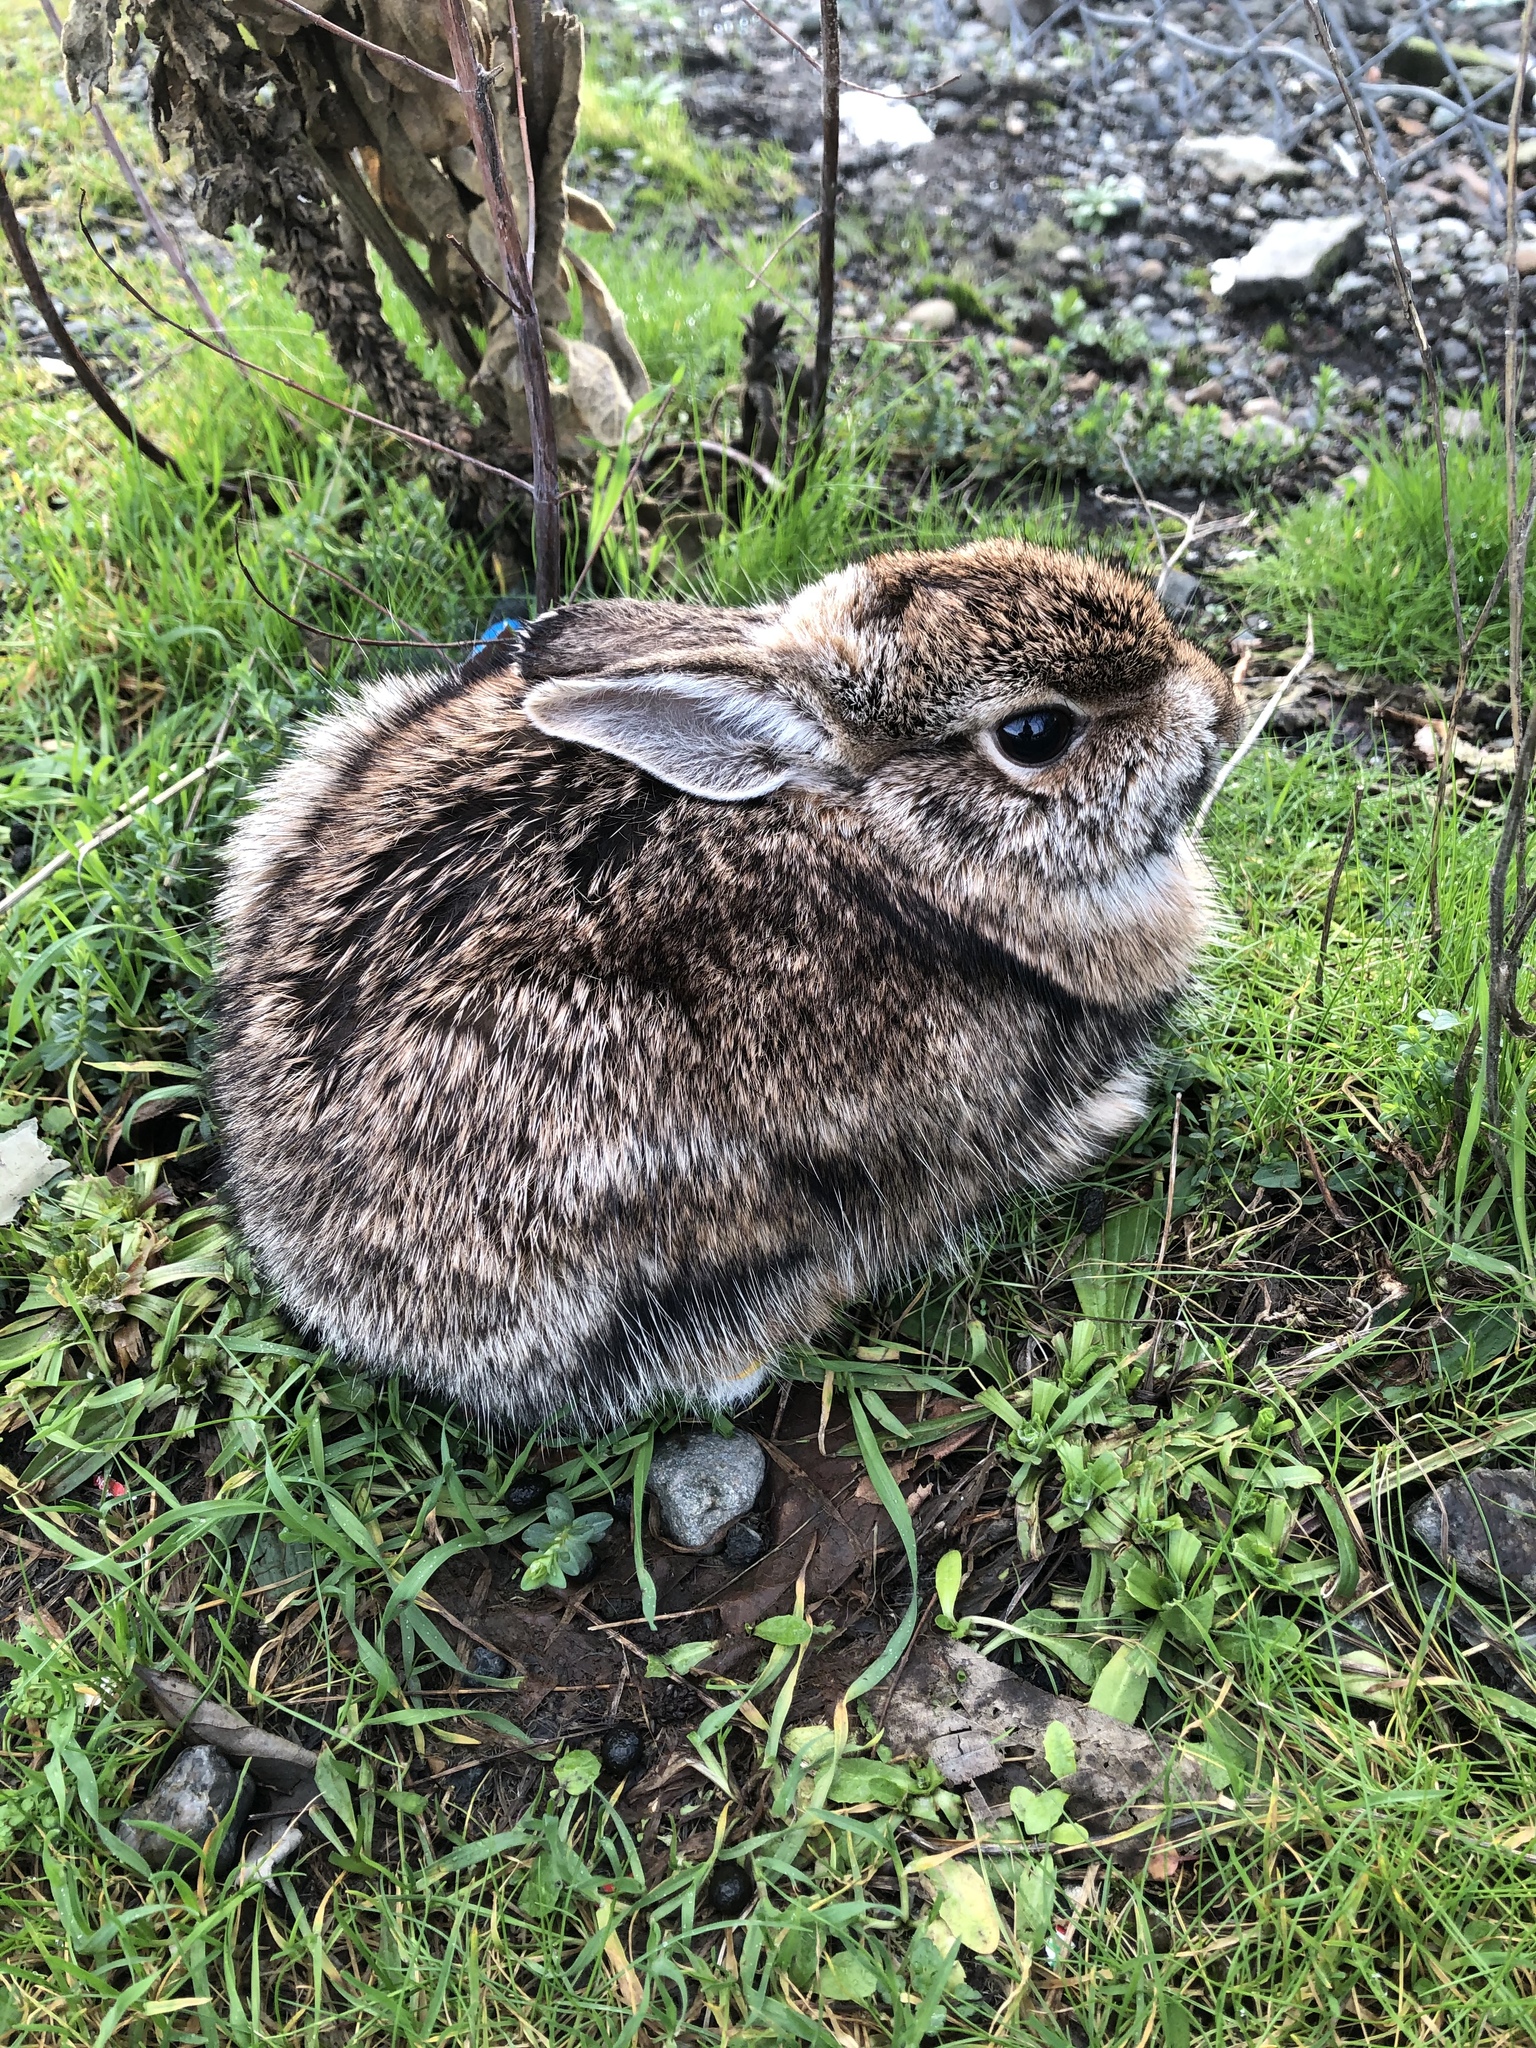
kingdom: Animalia
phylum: Chordata
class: Mammalia
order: Lagomorpha
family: Leporidae
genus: Sylvilagus
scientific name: Sylvilagus floridanus
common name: Eastern cottontail
